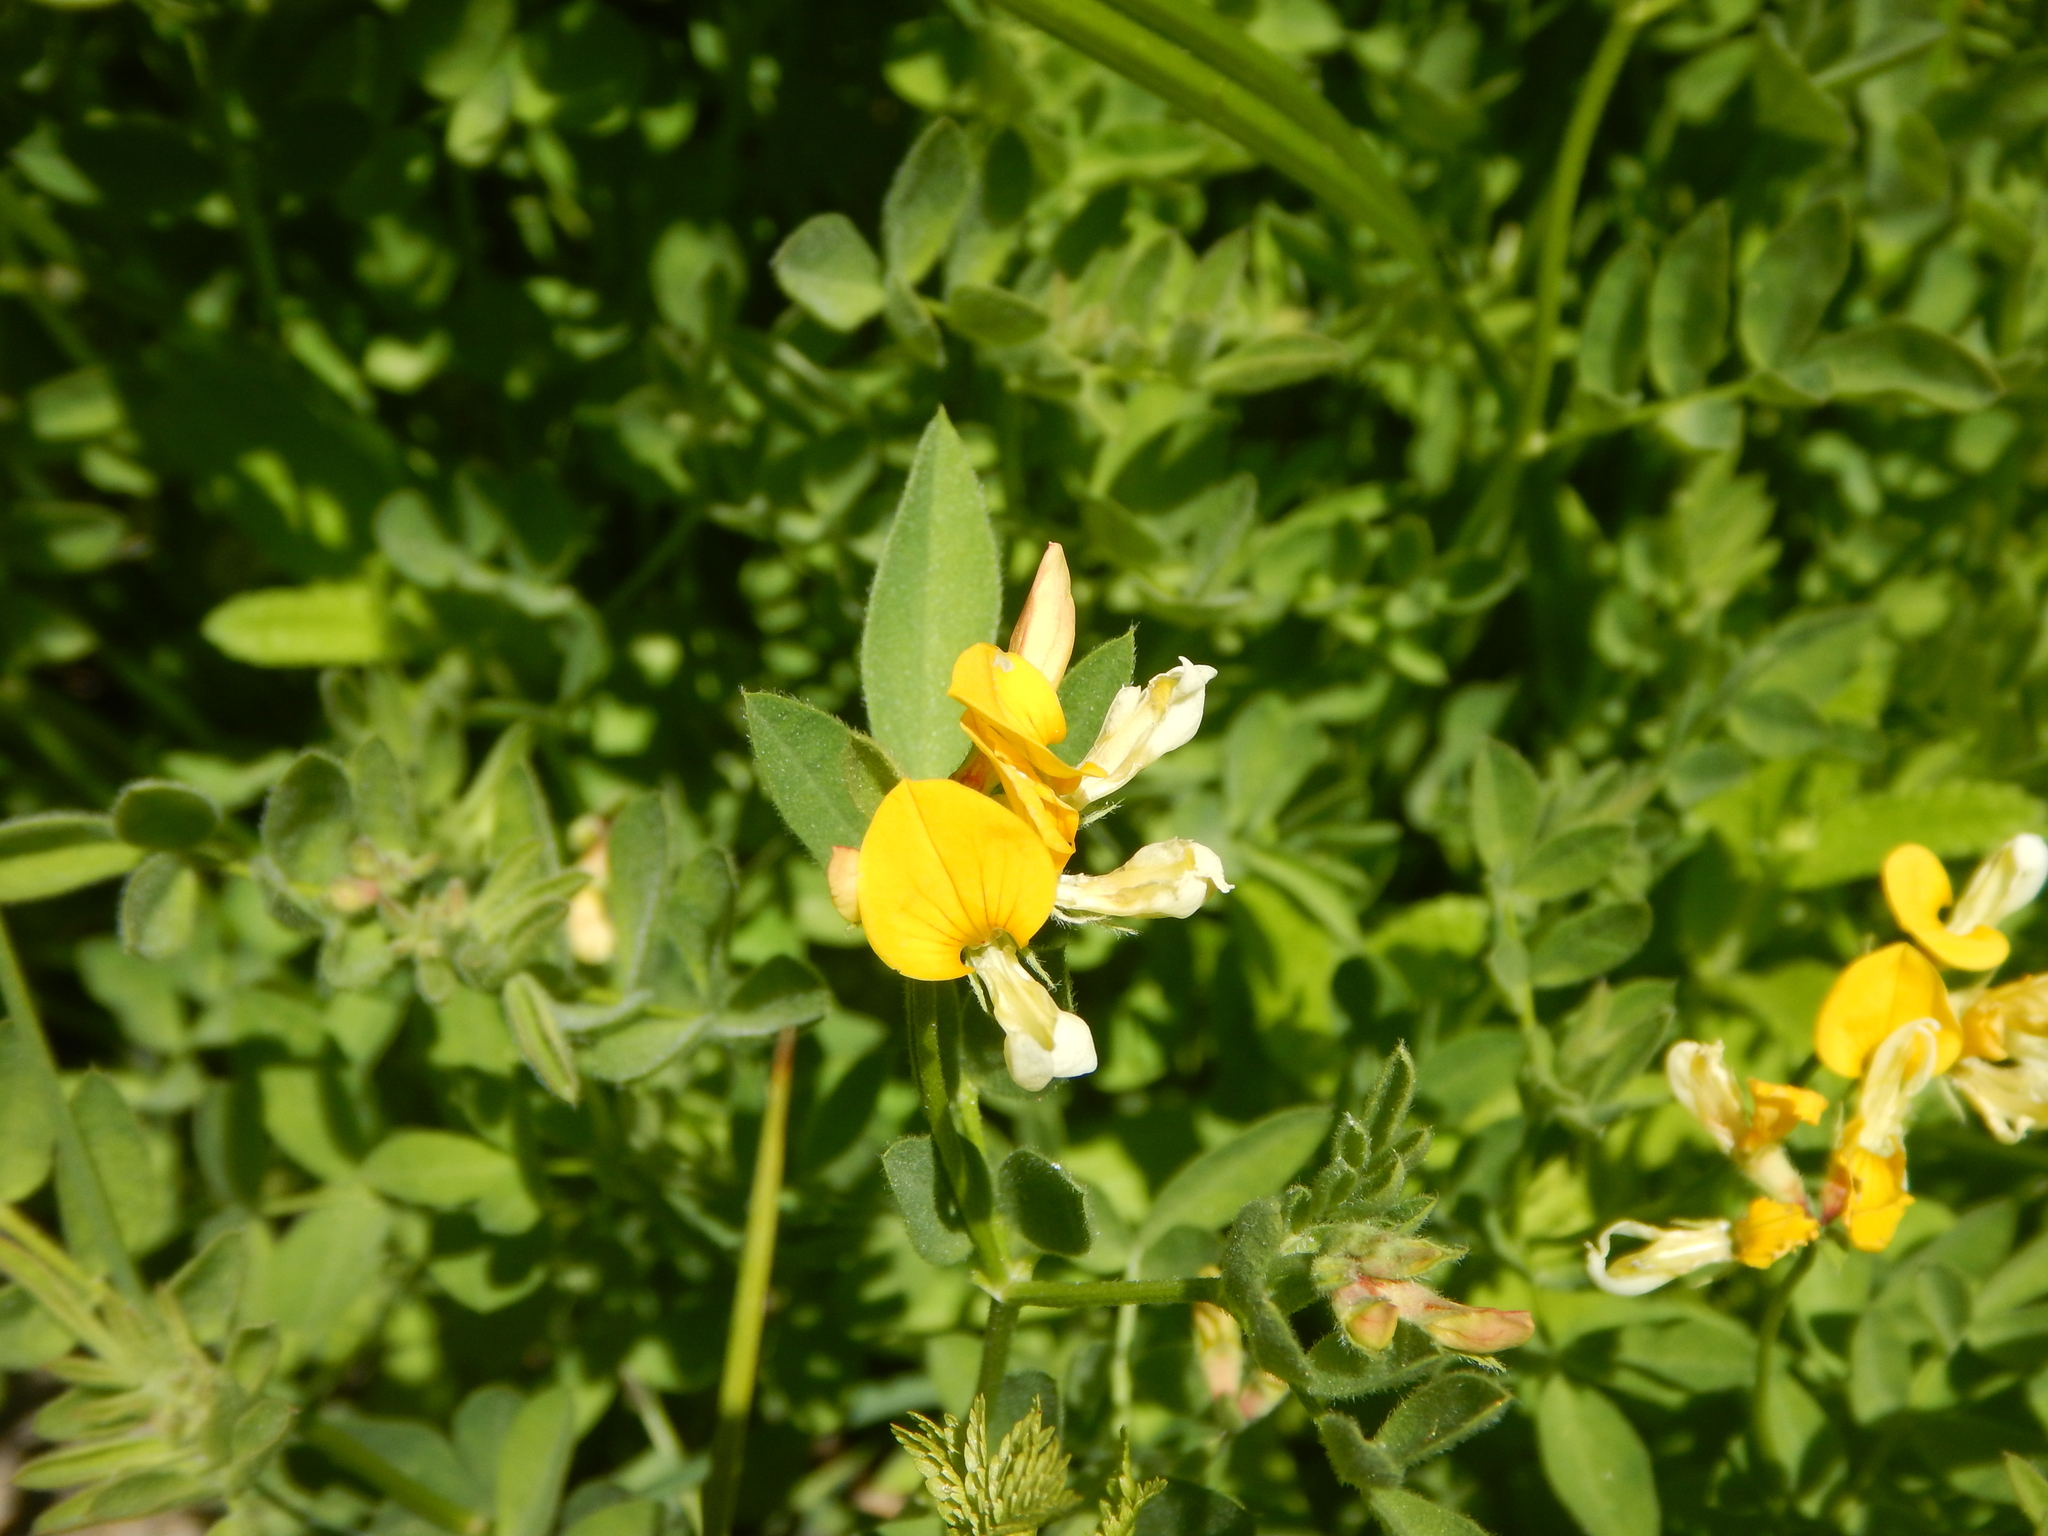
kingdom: Plantae
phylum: Tracheophyta
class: Magnoliopsida
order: Fabales
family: Fabaceae
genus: Hosackia
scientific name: Hosackia oblongifolia
